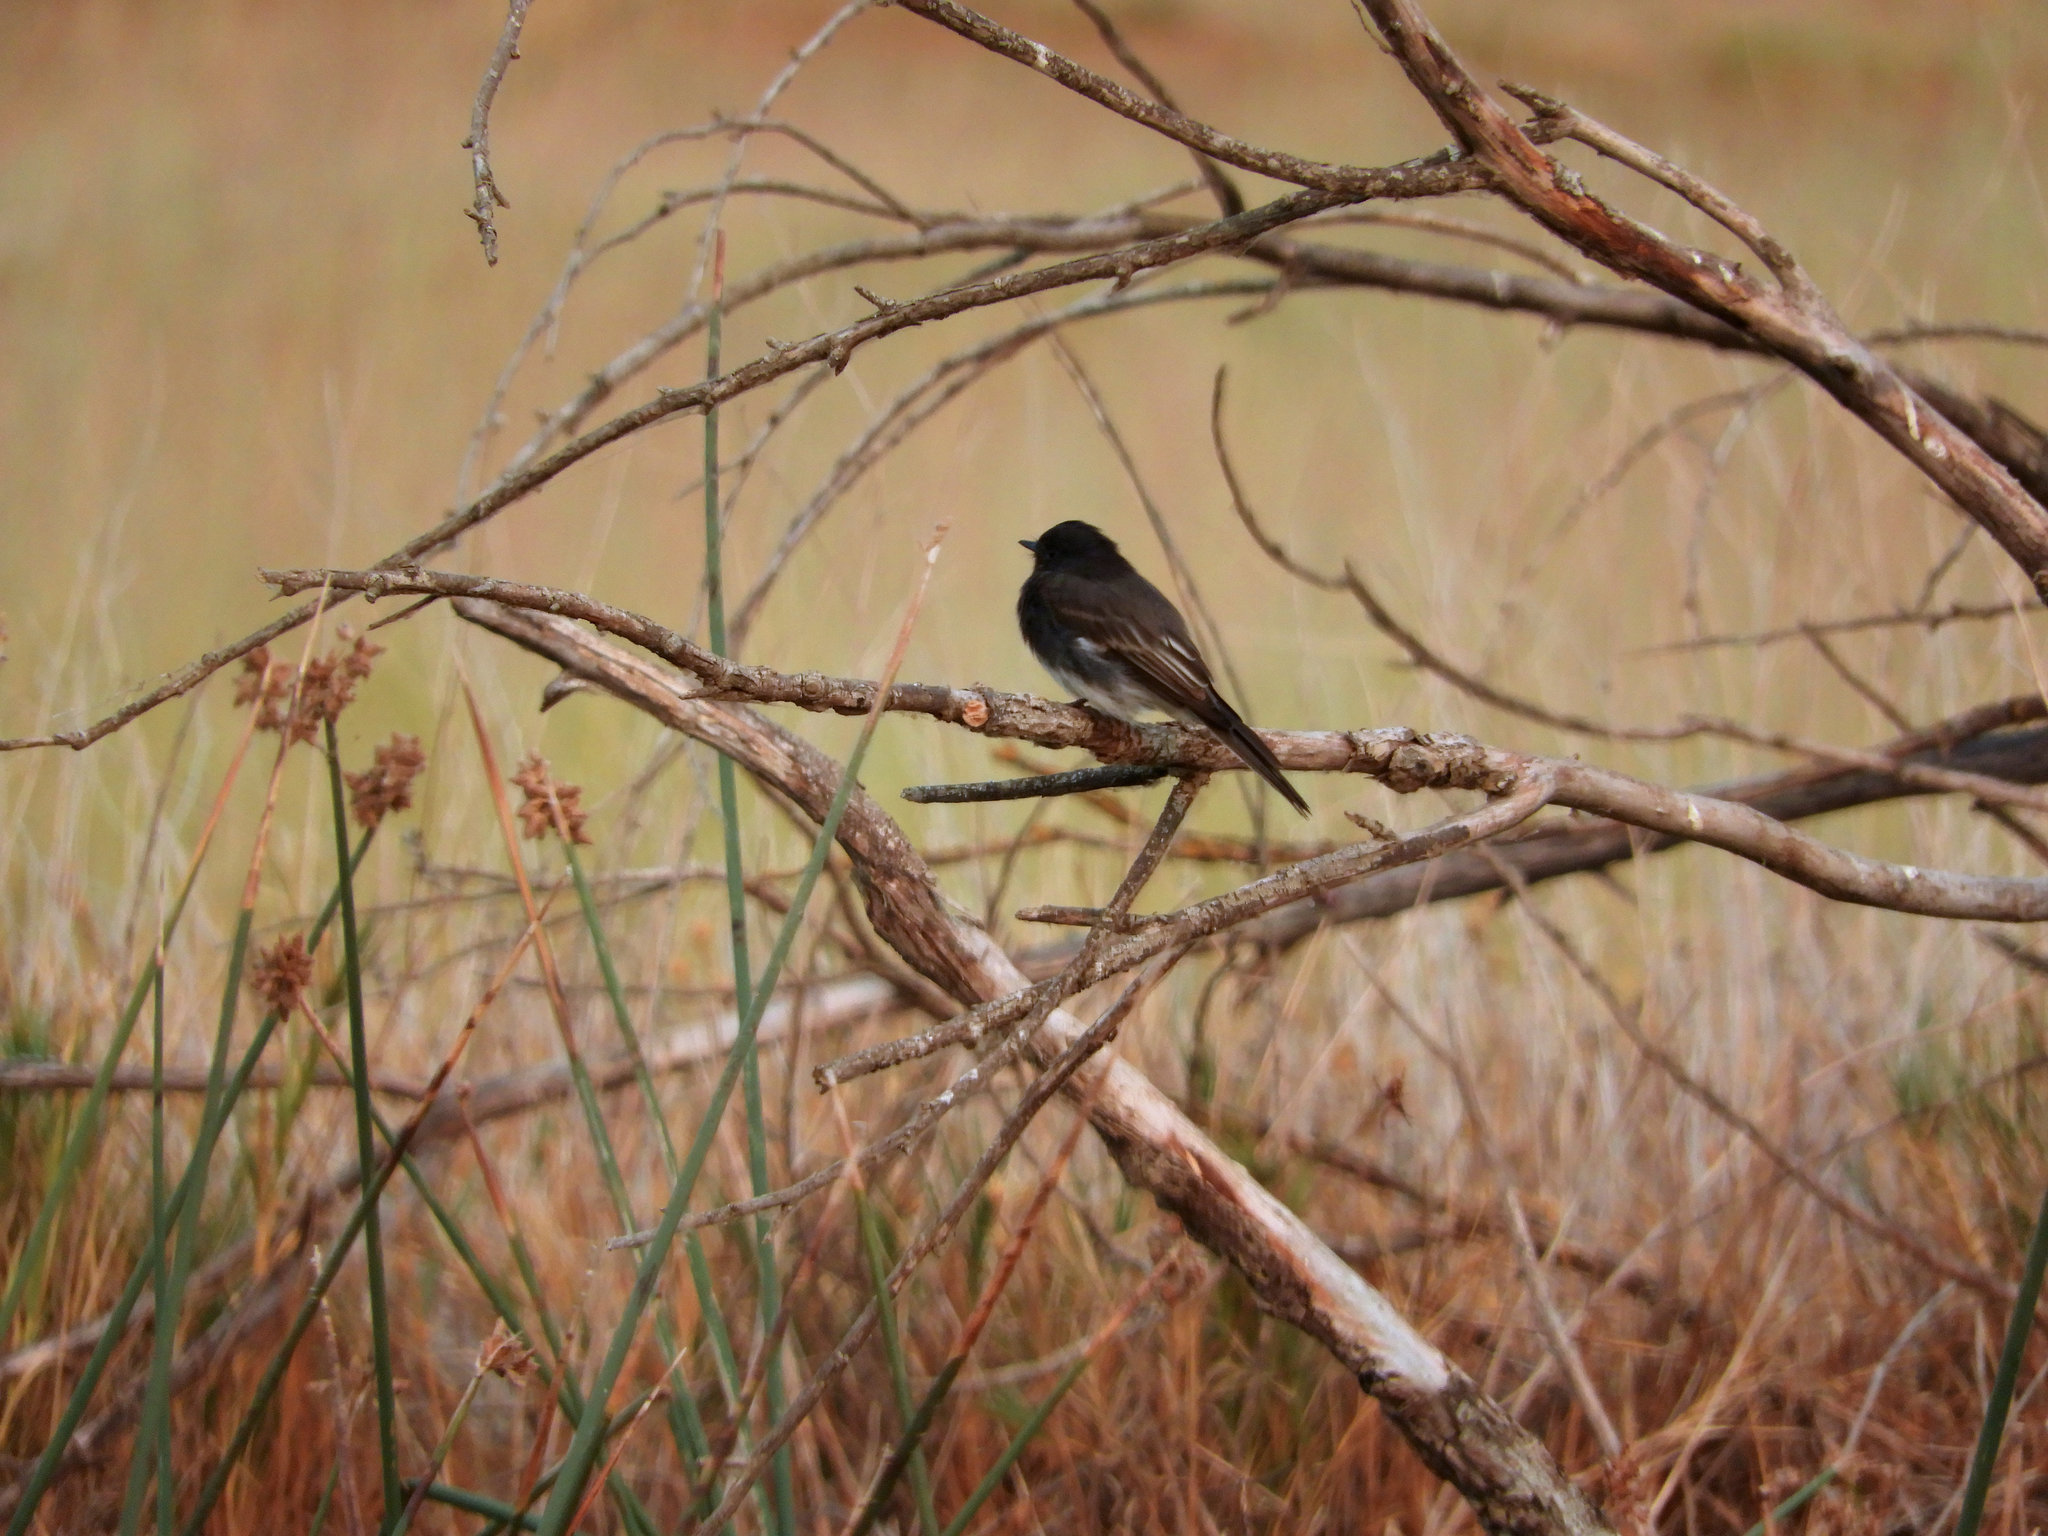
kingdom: Animalia
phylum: Chordata
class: Aves
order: Passeriformes
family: Tyrannidae
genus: Sayornis
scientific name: Sayornis nigricans
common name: Black phoebe
